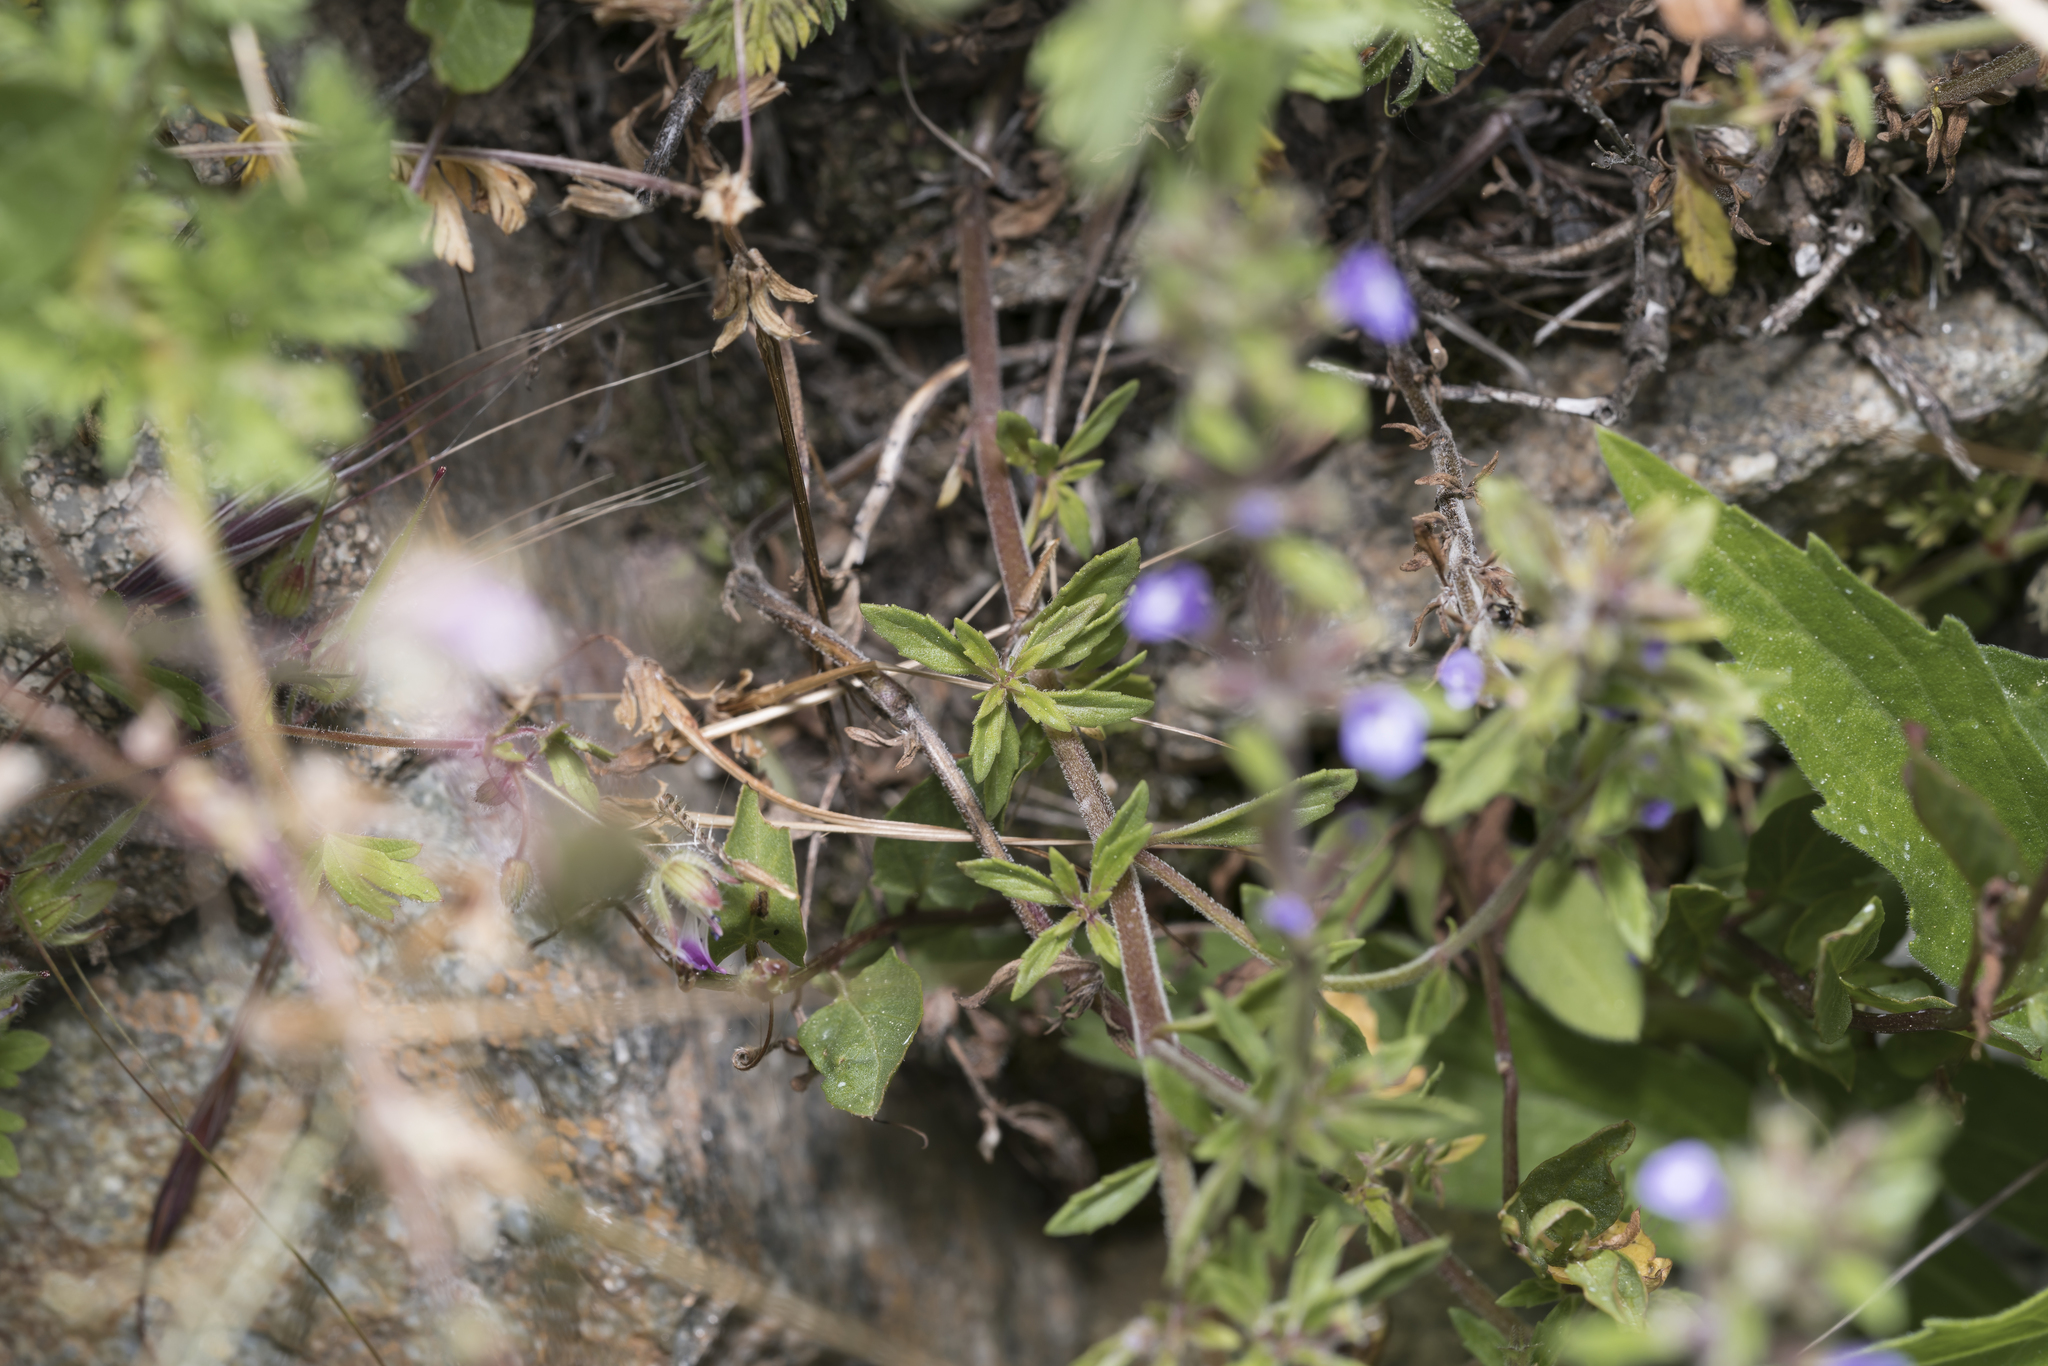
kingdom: Plantae
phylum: Tracheophyta
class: Magnoliopsida
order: Lamiales
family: Lamiaceae
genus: Clinopodium
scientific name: Clinopodium acinos
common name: Basil thyme
